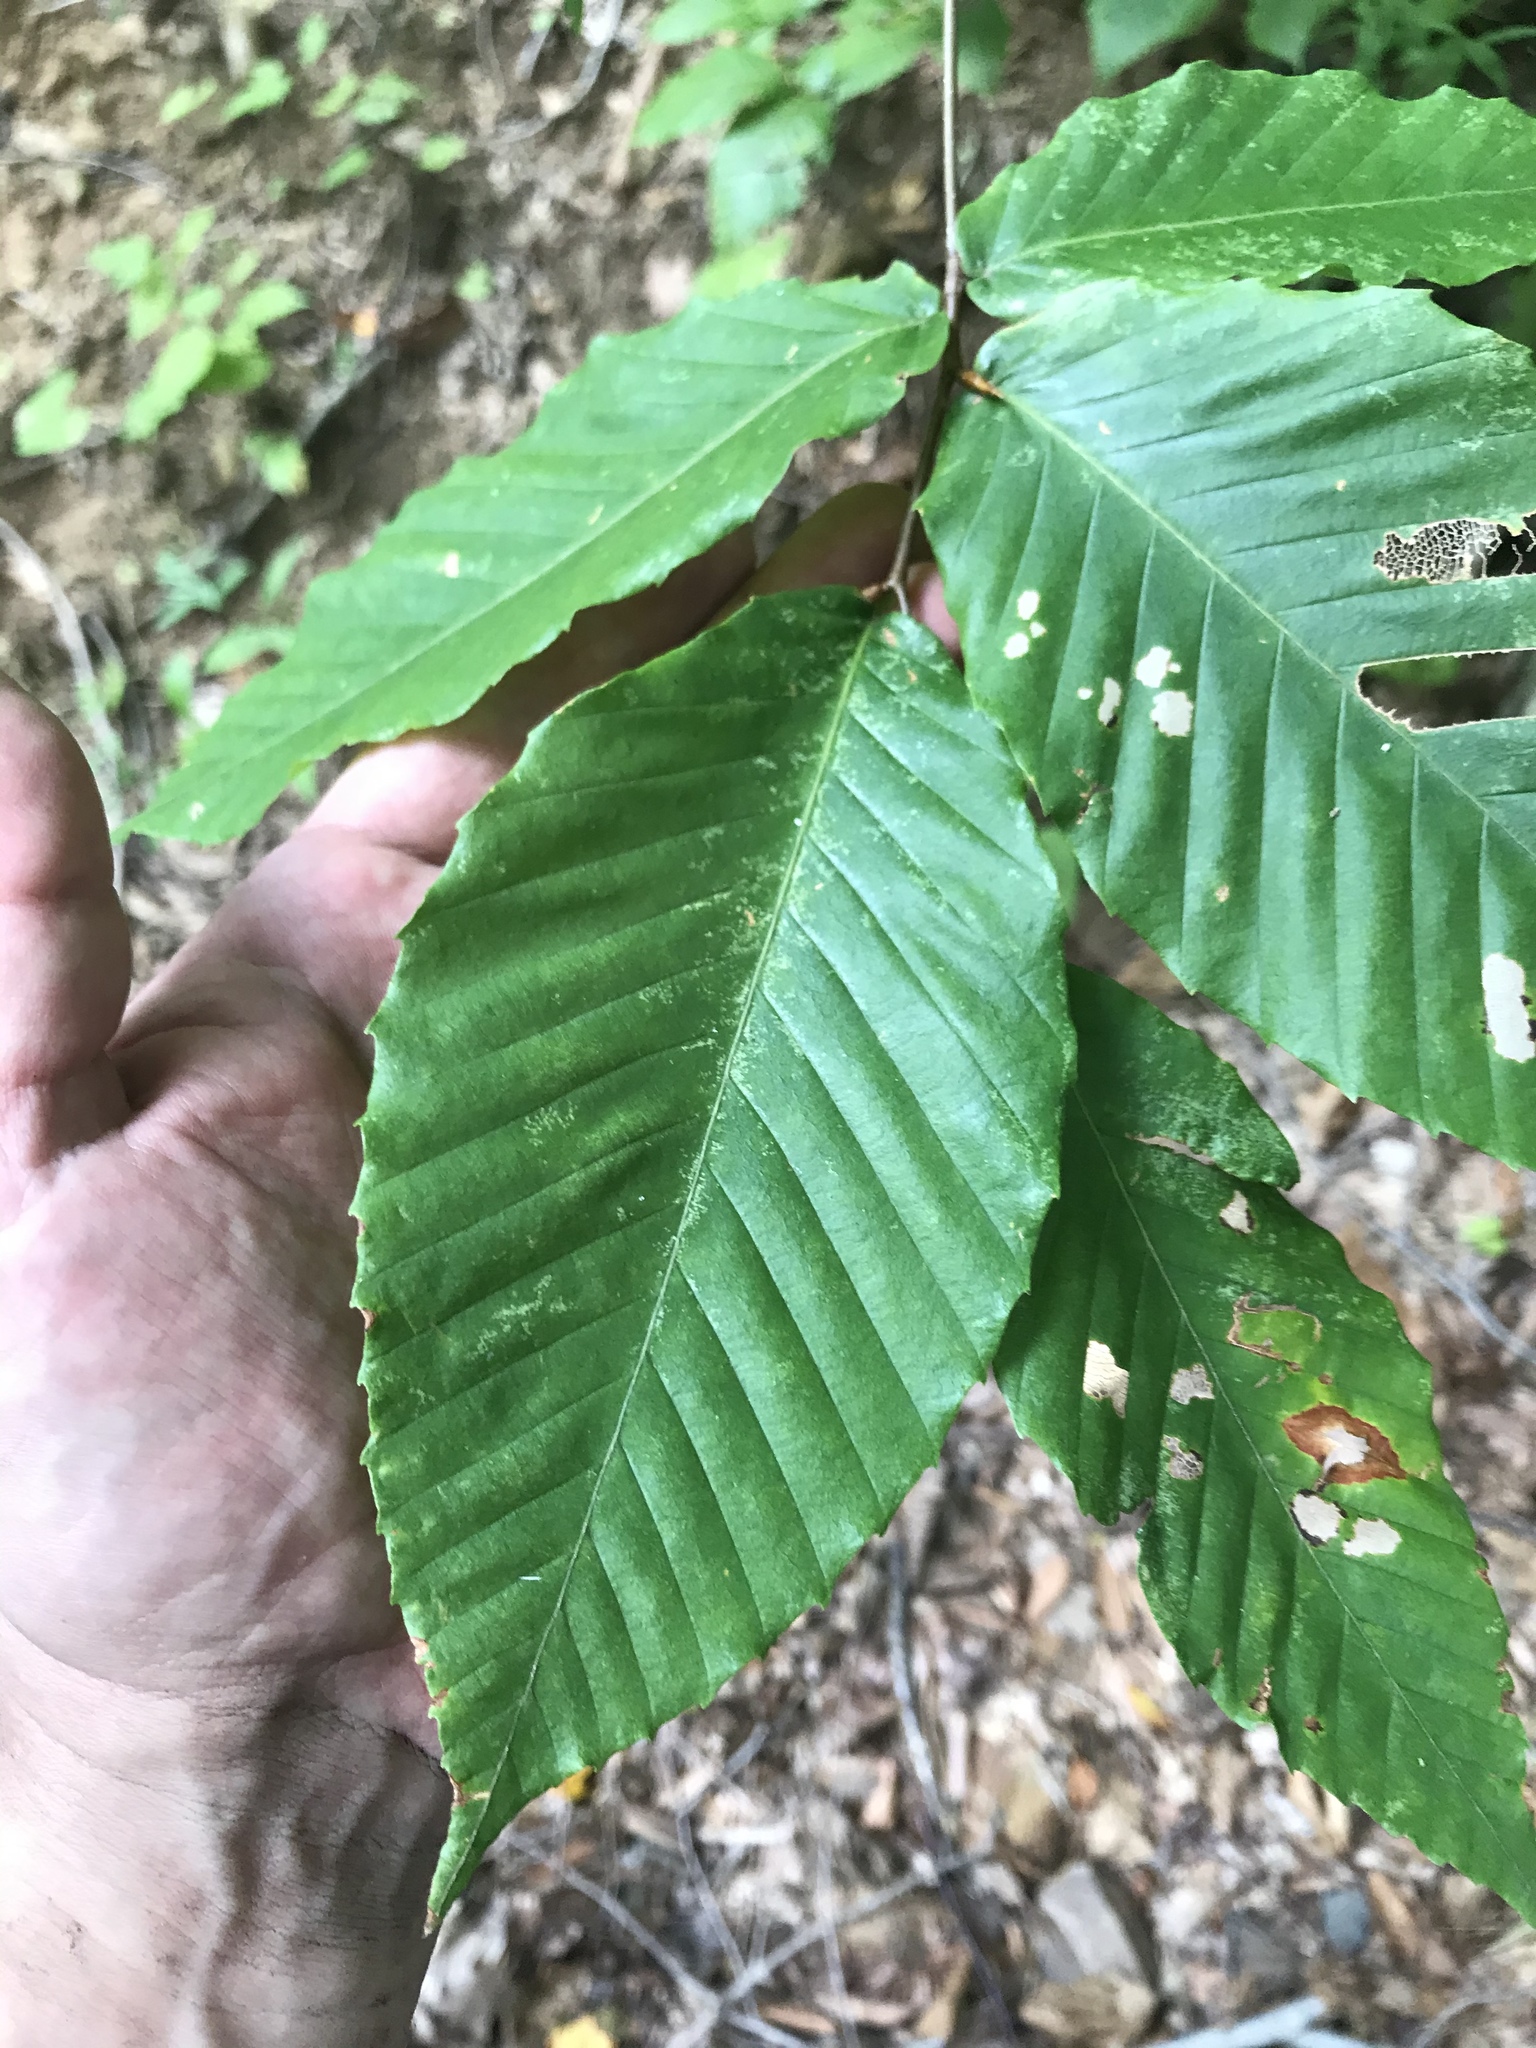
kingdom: Plantae
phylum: Tracheophyta
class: Magnoliopsida
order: Fagales
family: Fagaceae
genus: Fagus
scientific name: Fagus grandifolia
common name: American beech
